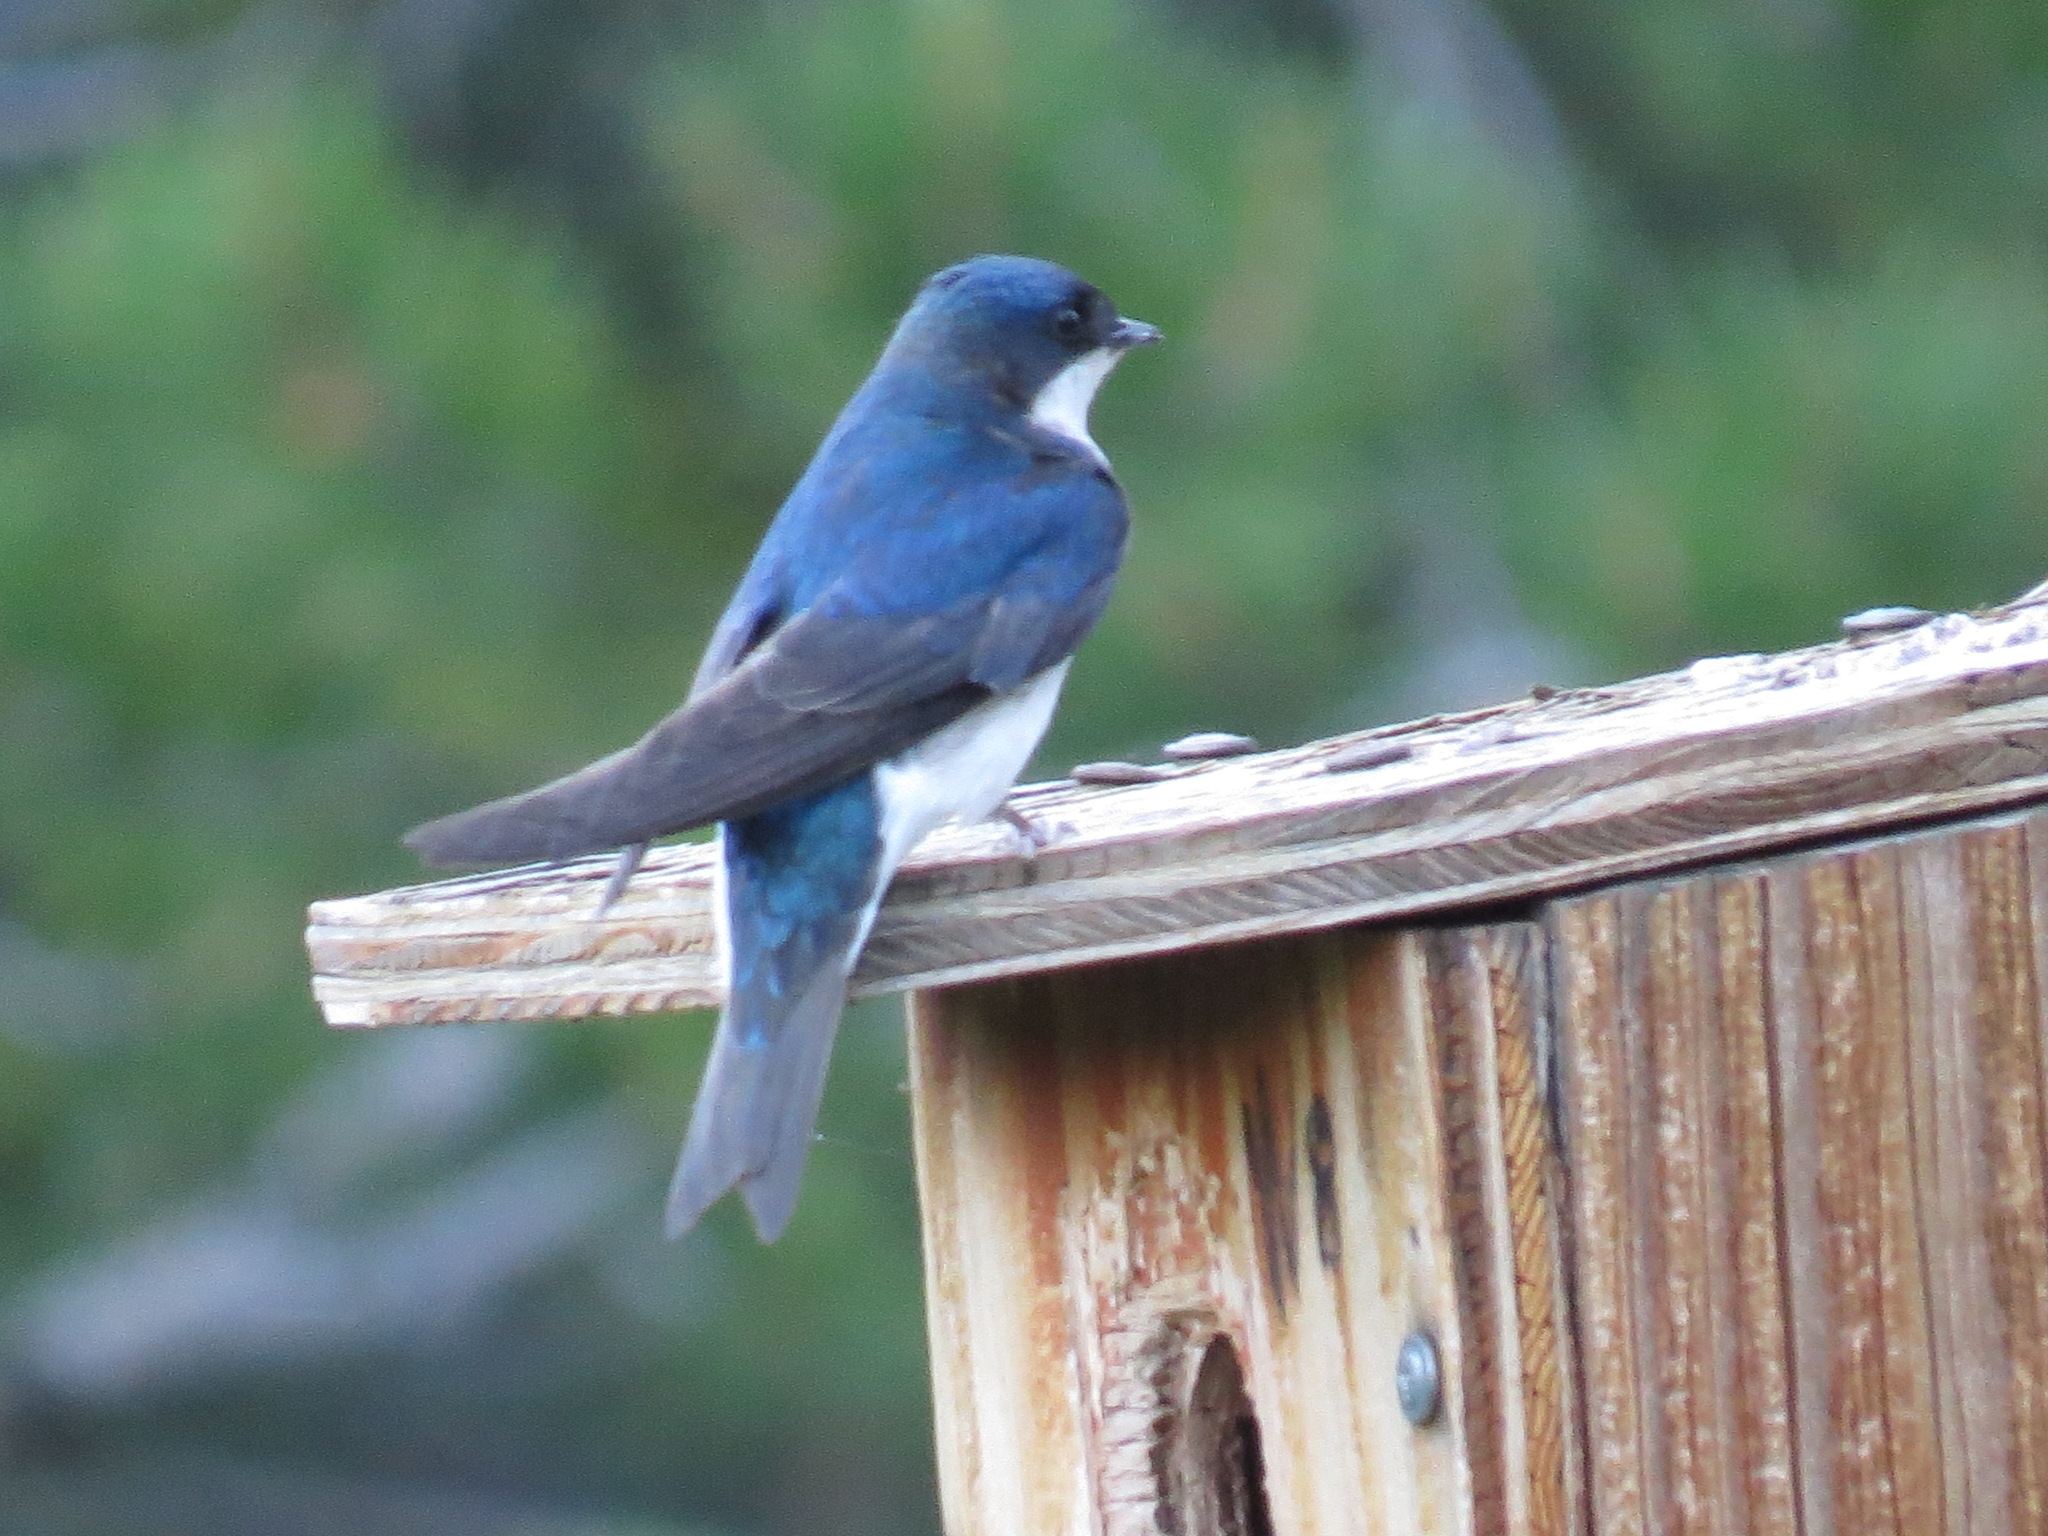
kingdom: Animalia
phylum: Chordata
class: Aves
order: Passeriformes
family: Hirundinidae
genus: Tachycineta
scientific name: Tachycineta bicolor
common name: Tree swallow
